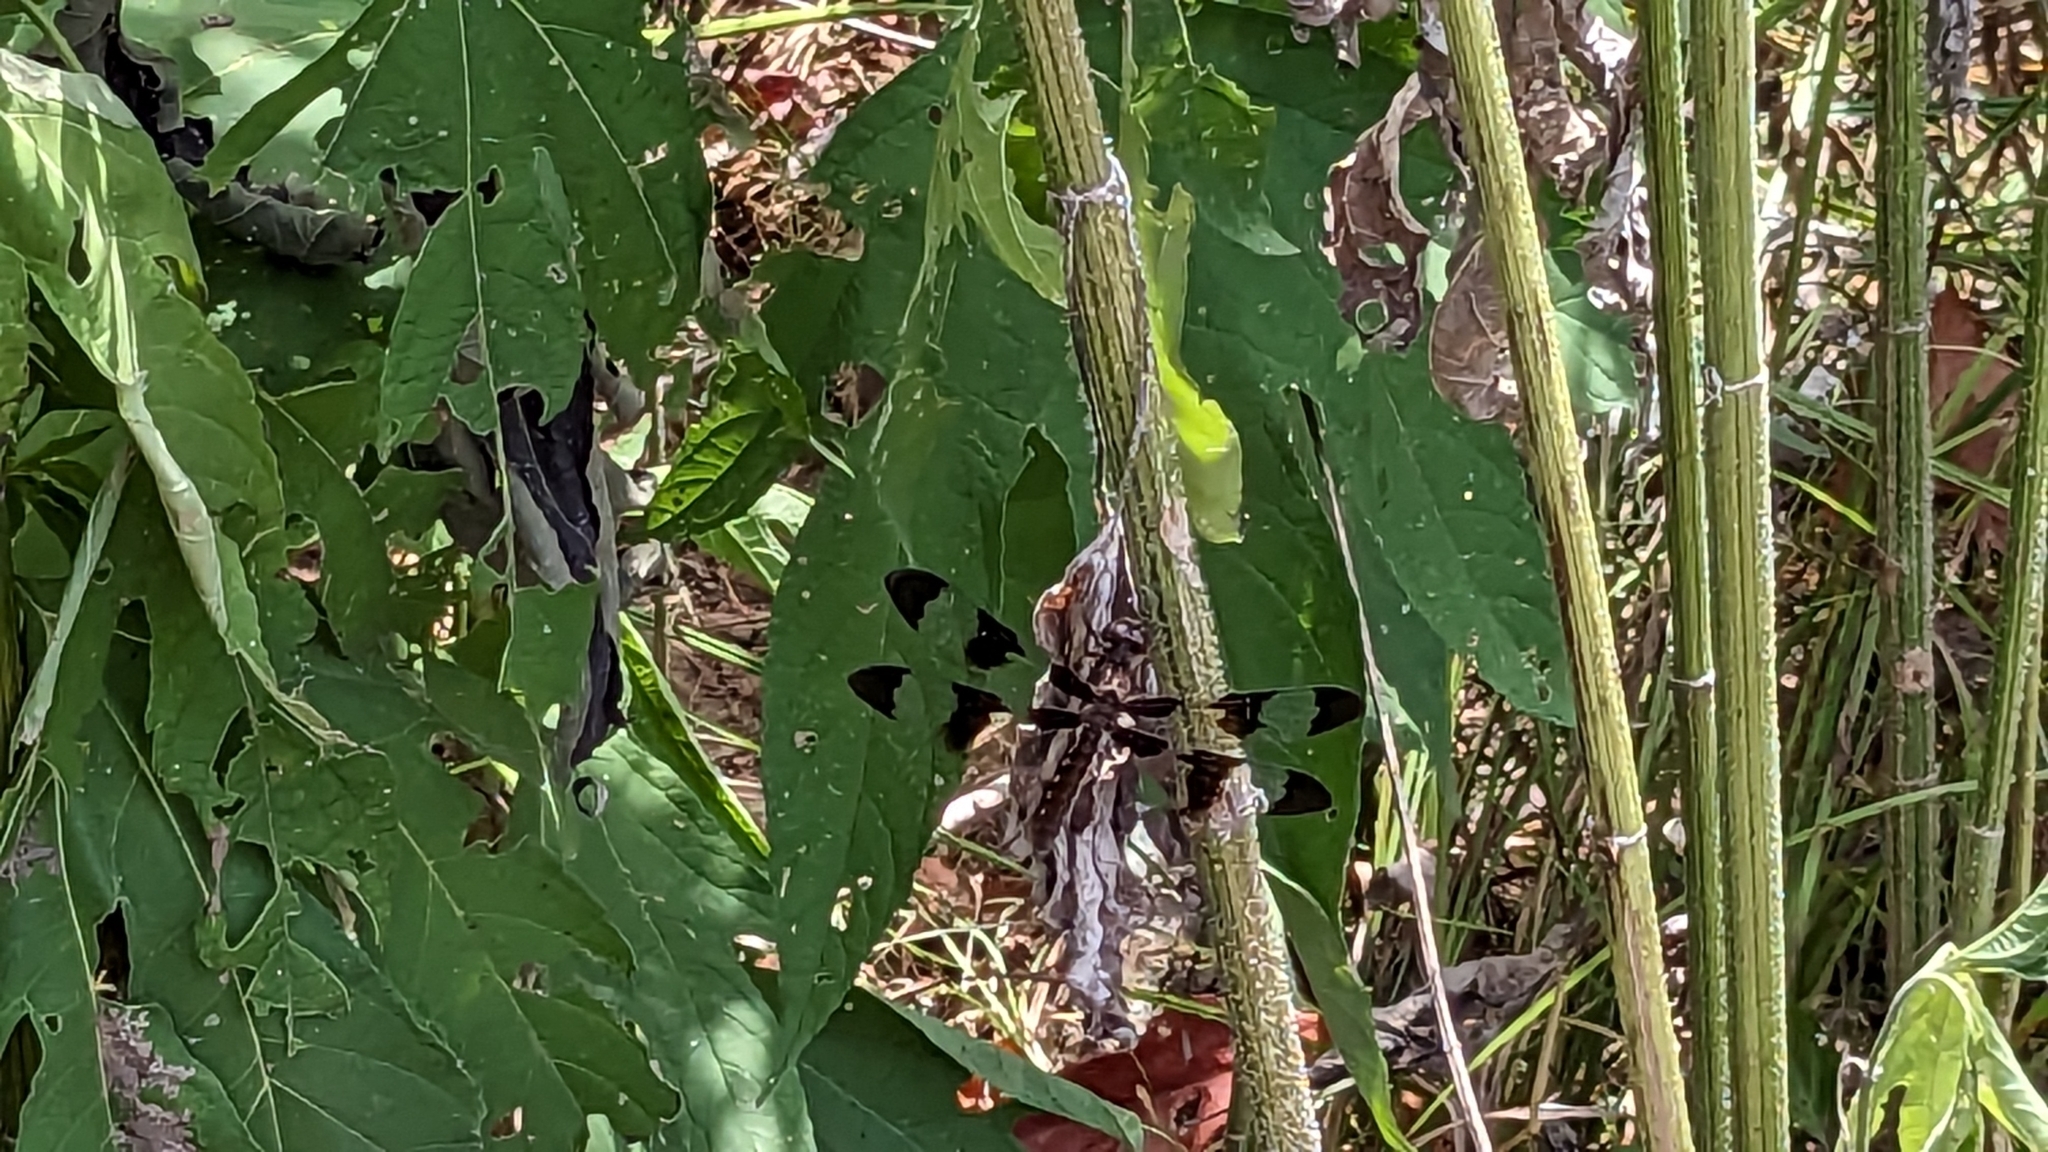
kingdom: Animalia
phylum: Arthropoda
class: Insecta
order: Odonata
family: Libellulidae
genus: Plathemis
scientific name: Plathemis lydia
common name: Common whitetail
